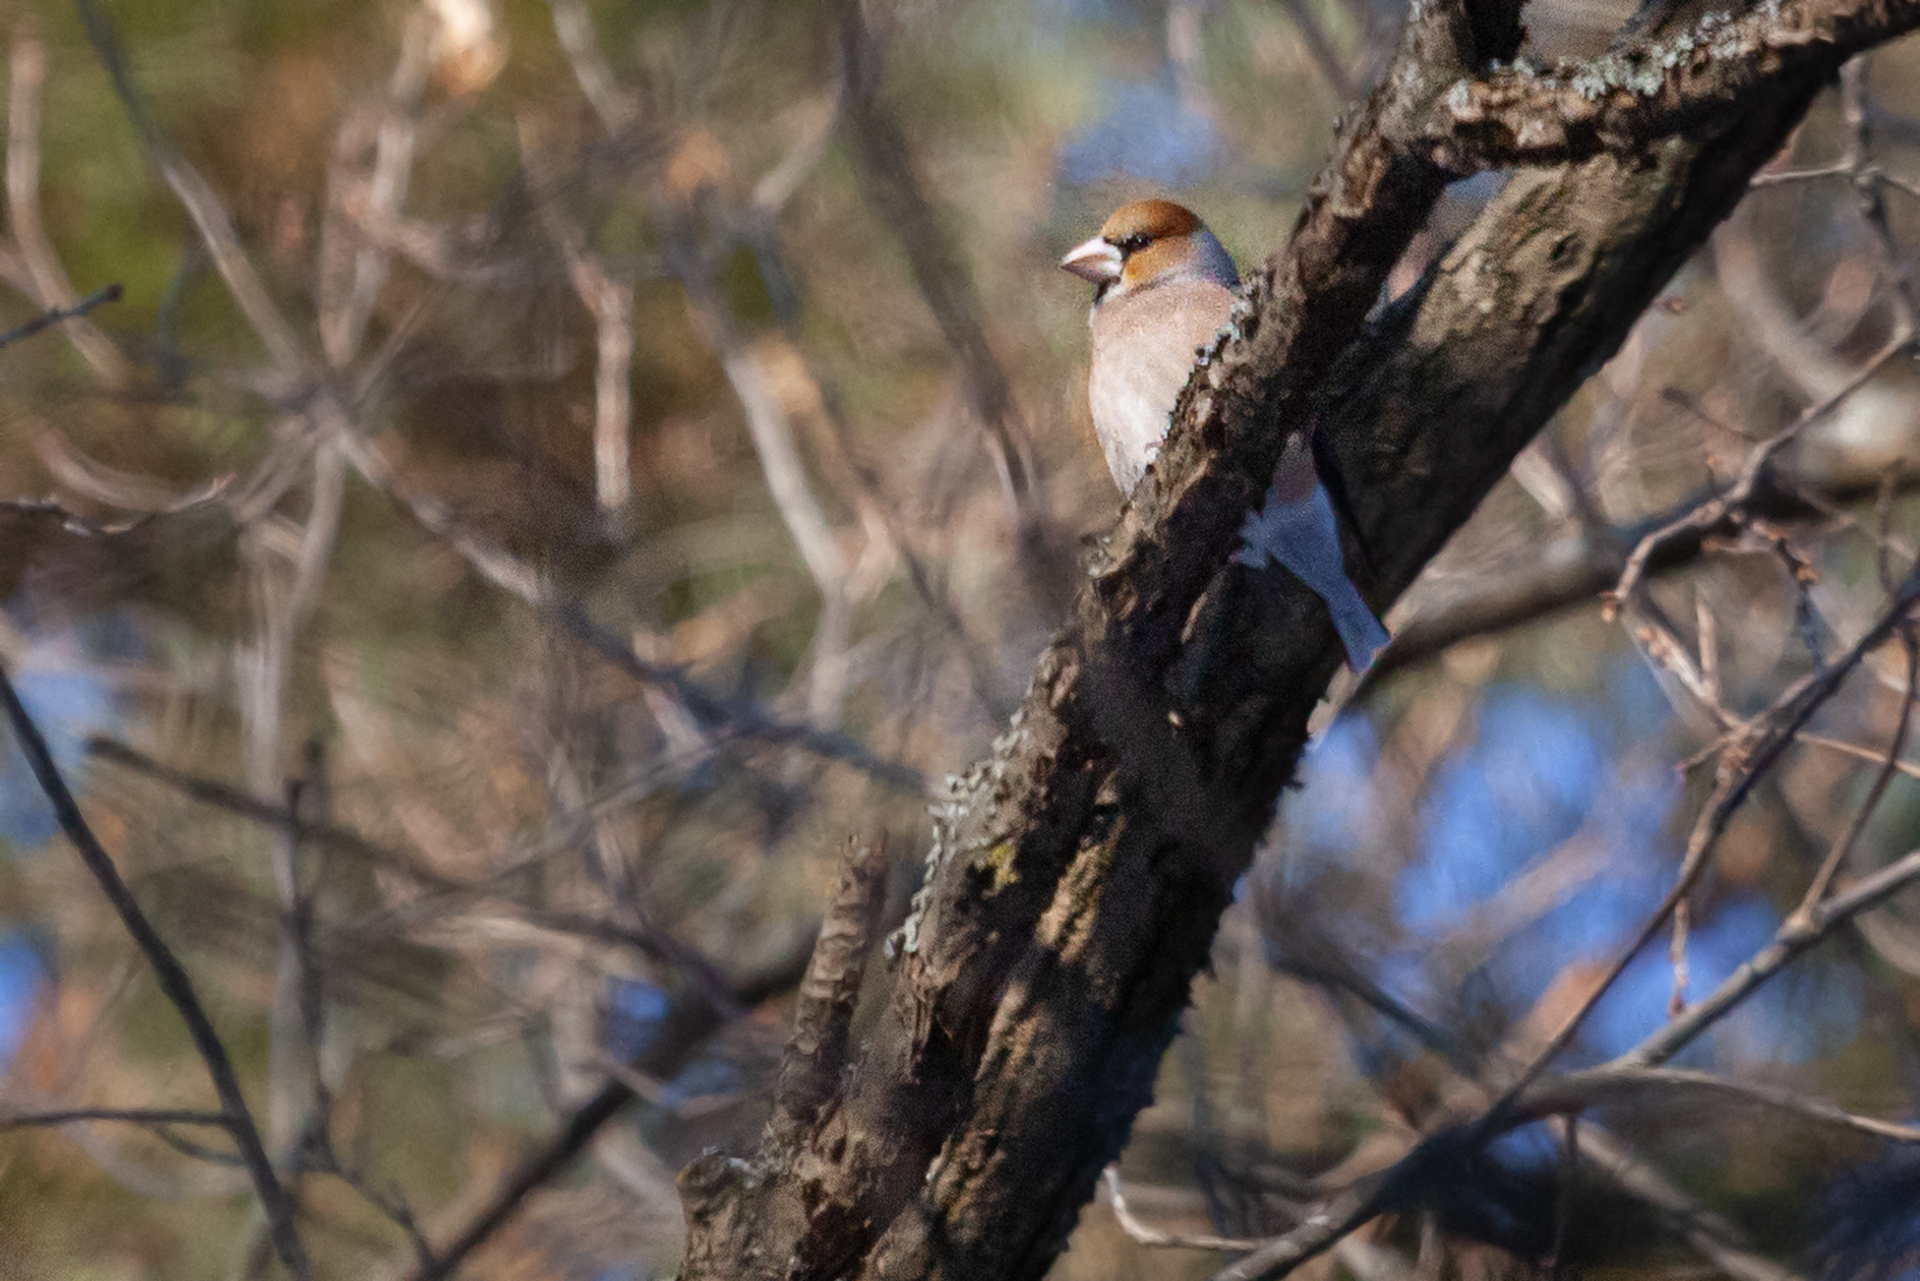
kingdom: Animalia
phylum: Chordata
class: Aves
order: Passeriformes
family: Fringillidae
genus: Coccothraustes
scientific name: Coccothraustes coccothraustes
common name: Hawfinch
